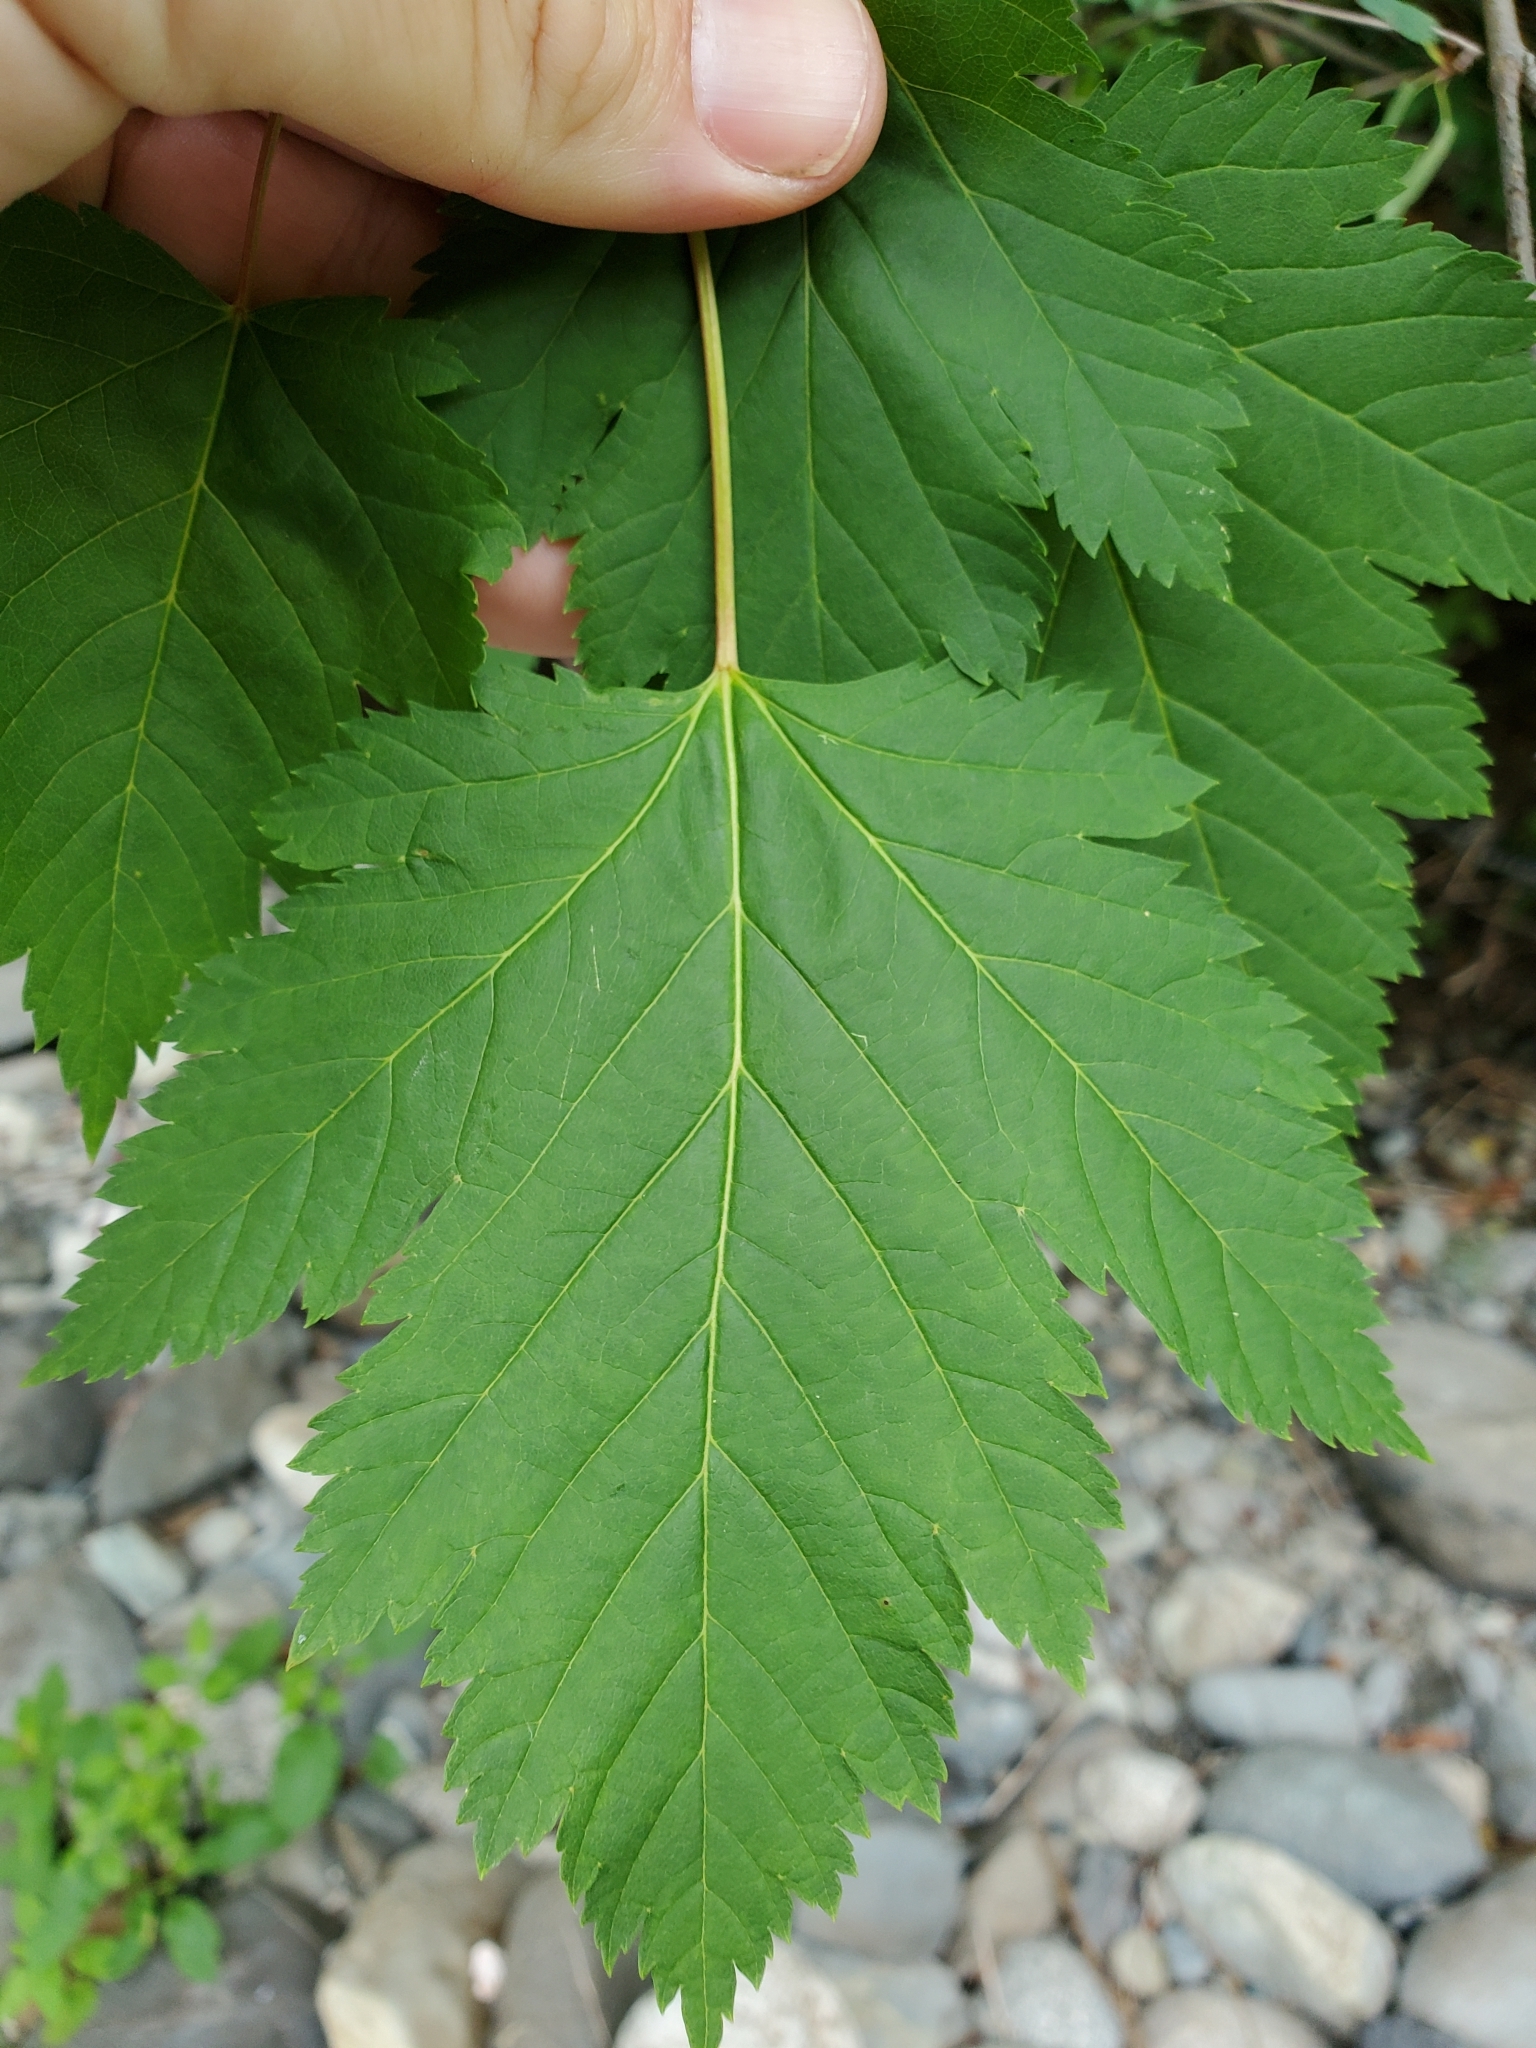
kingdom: Plantae
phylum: Tracheophyta
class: Magnoliopsida
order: Sapindales
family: Sapindaceae
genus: Acer
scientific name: Acer glabrum
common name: Rocky mountain maple
